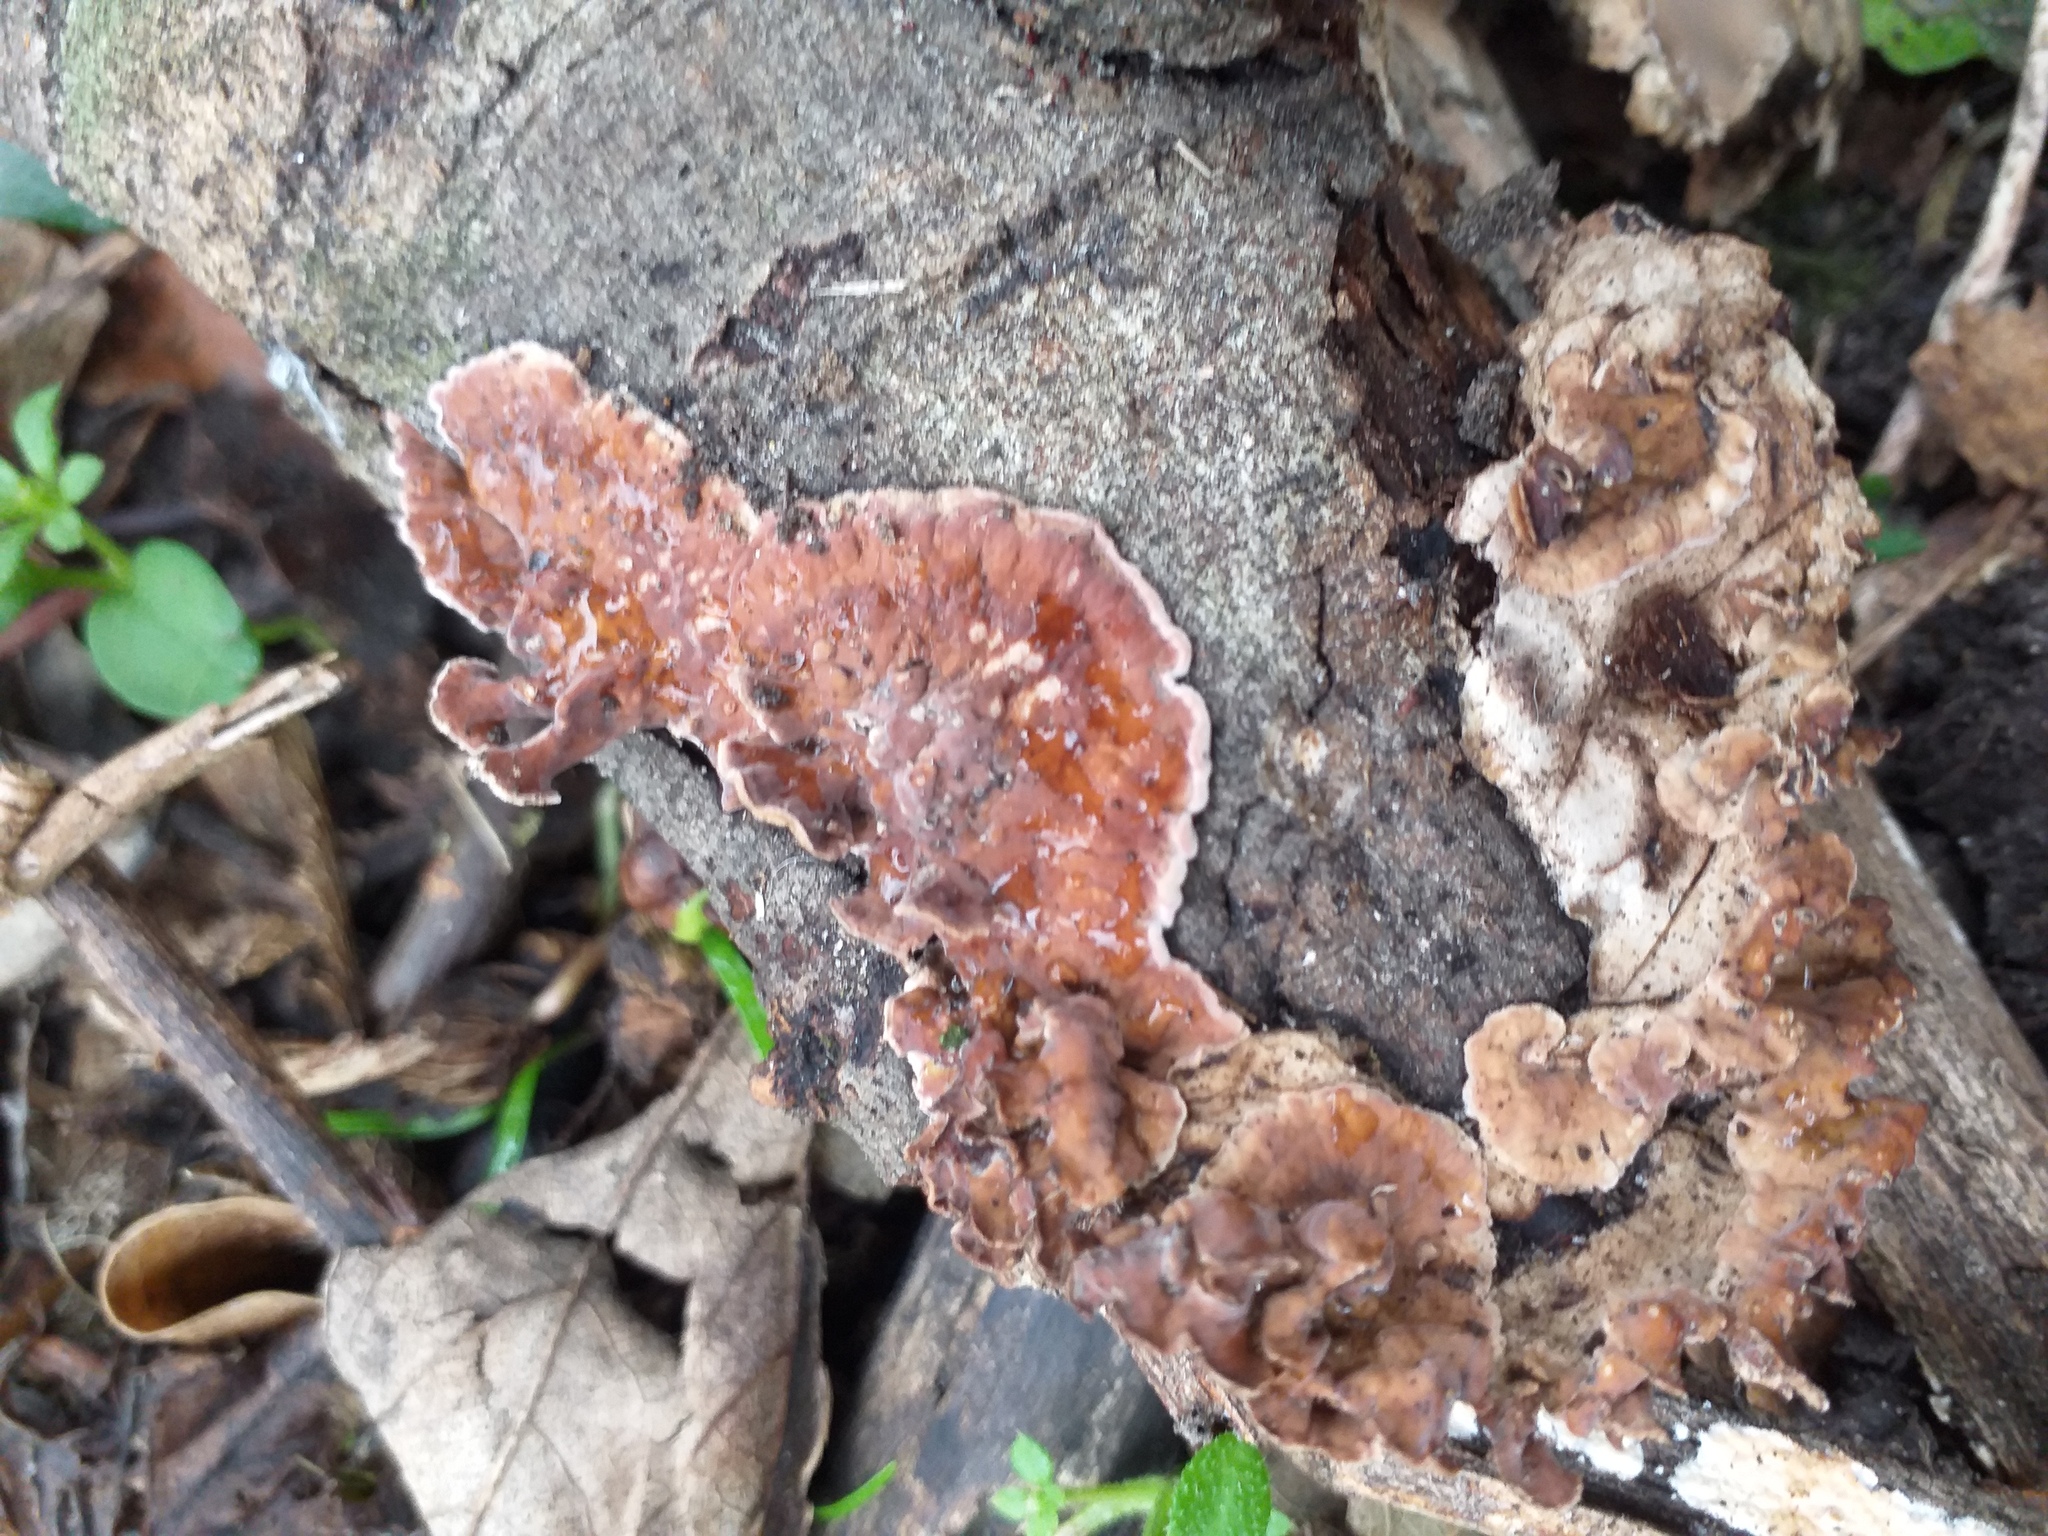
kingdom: Fungi
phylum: Basidiomycota
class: Agaricomycetes
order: Agaricales
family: Cyphellaceae
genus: Chondrostereum
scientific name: Chondrostereum purpureum
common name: Silver leaf disease
